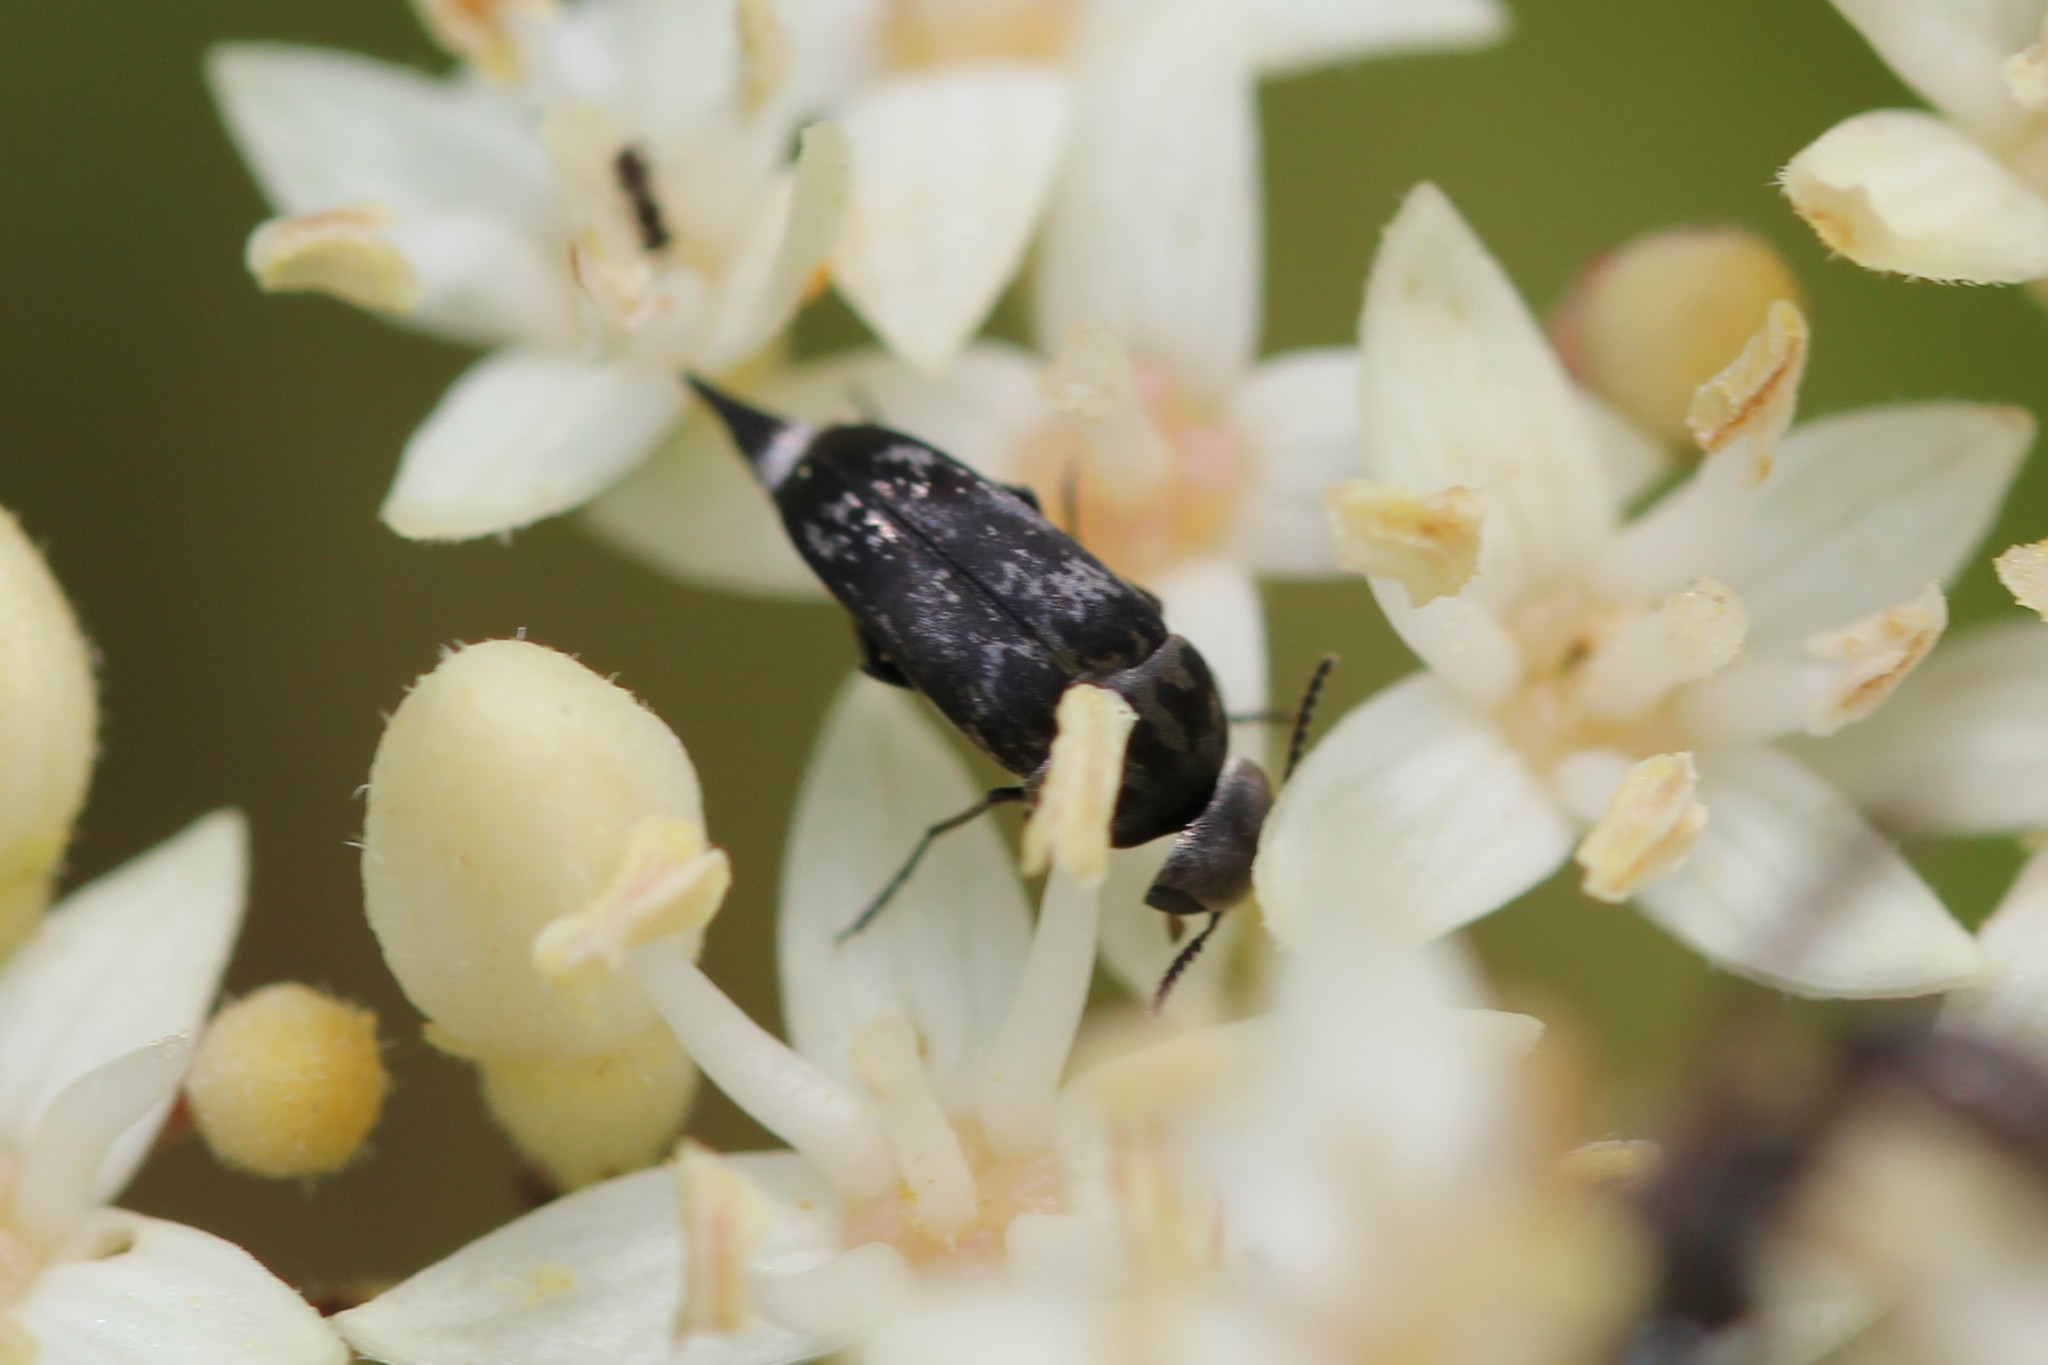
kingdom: Animalia
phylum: Arthropoda
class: Insecta
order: Coleoptera
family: Mordellidae
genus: Mordella
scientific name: Mordella marginata
